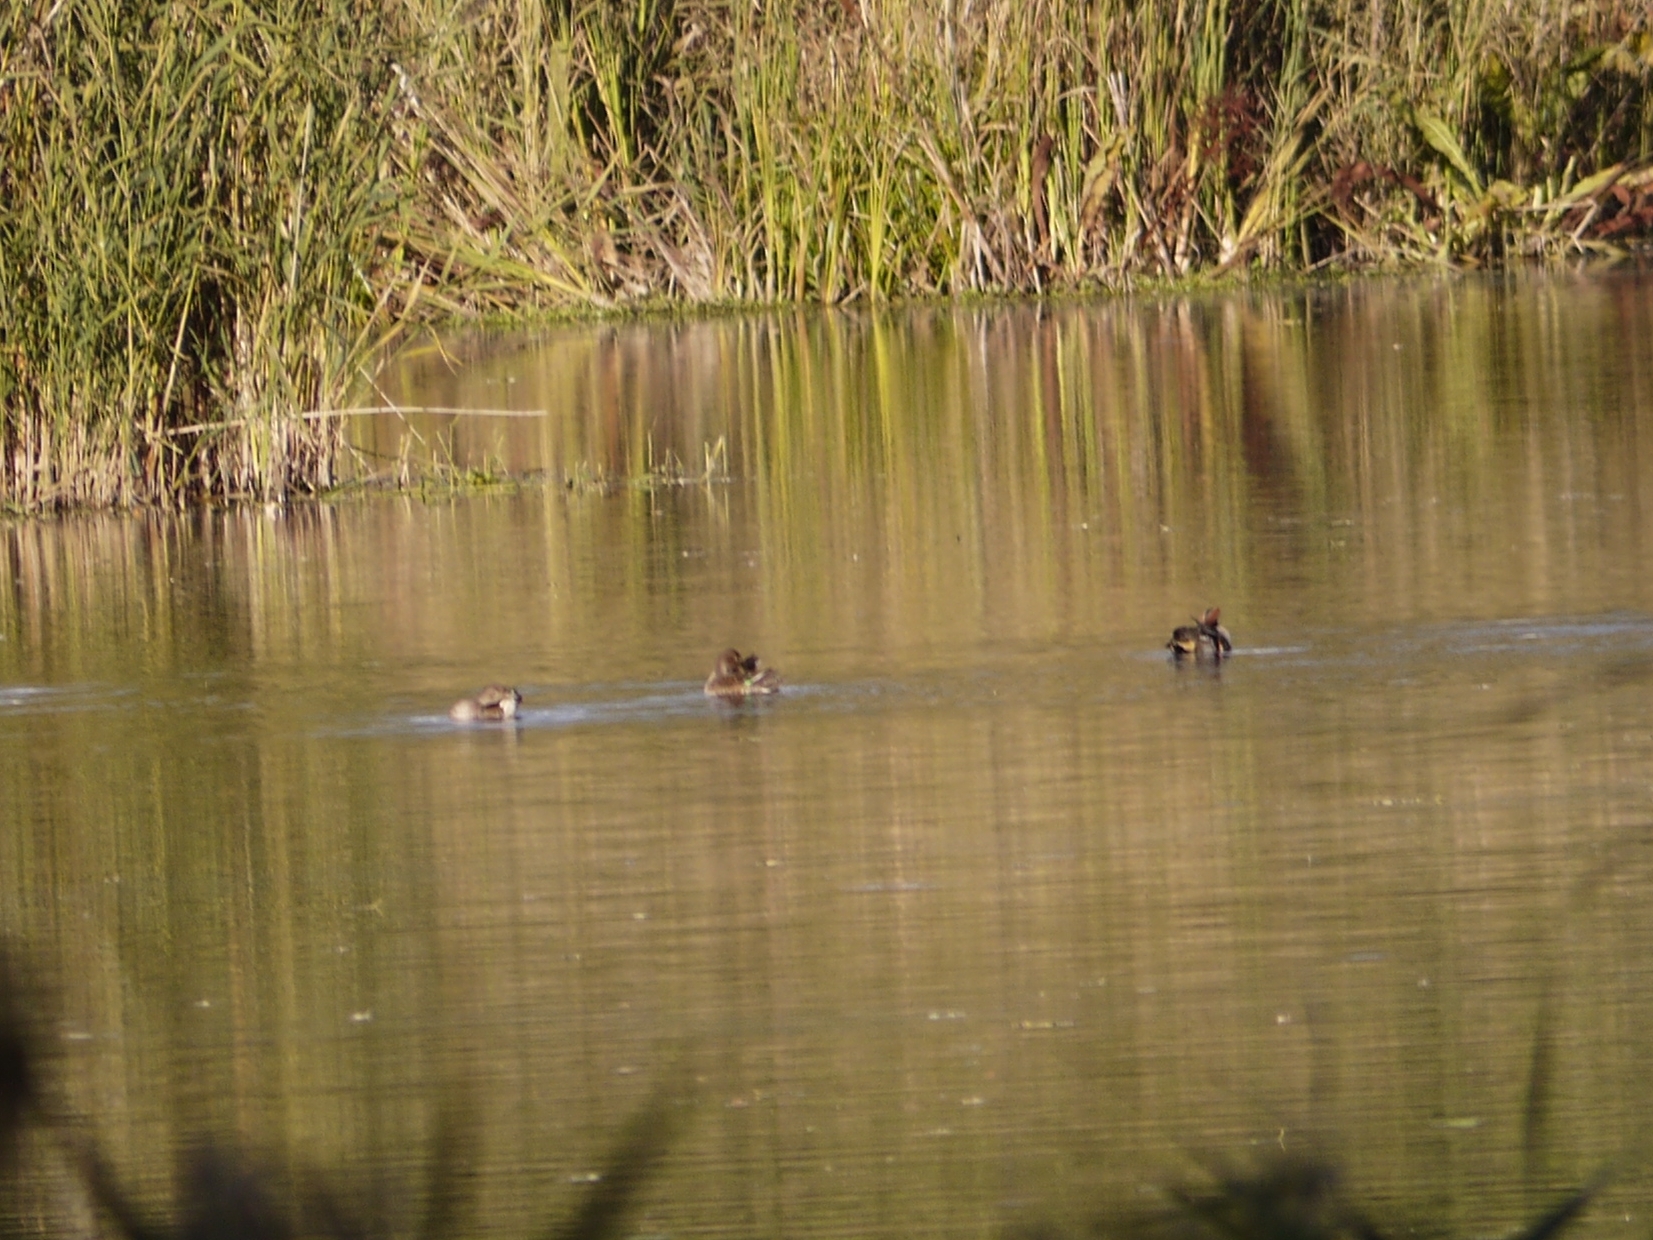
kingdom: Animalia
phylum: Chordata
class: Aves
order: Anseriformes
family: Anatidae
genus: Anas
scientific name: Anas crecca
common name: Eurasian teal
